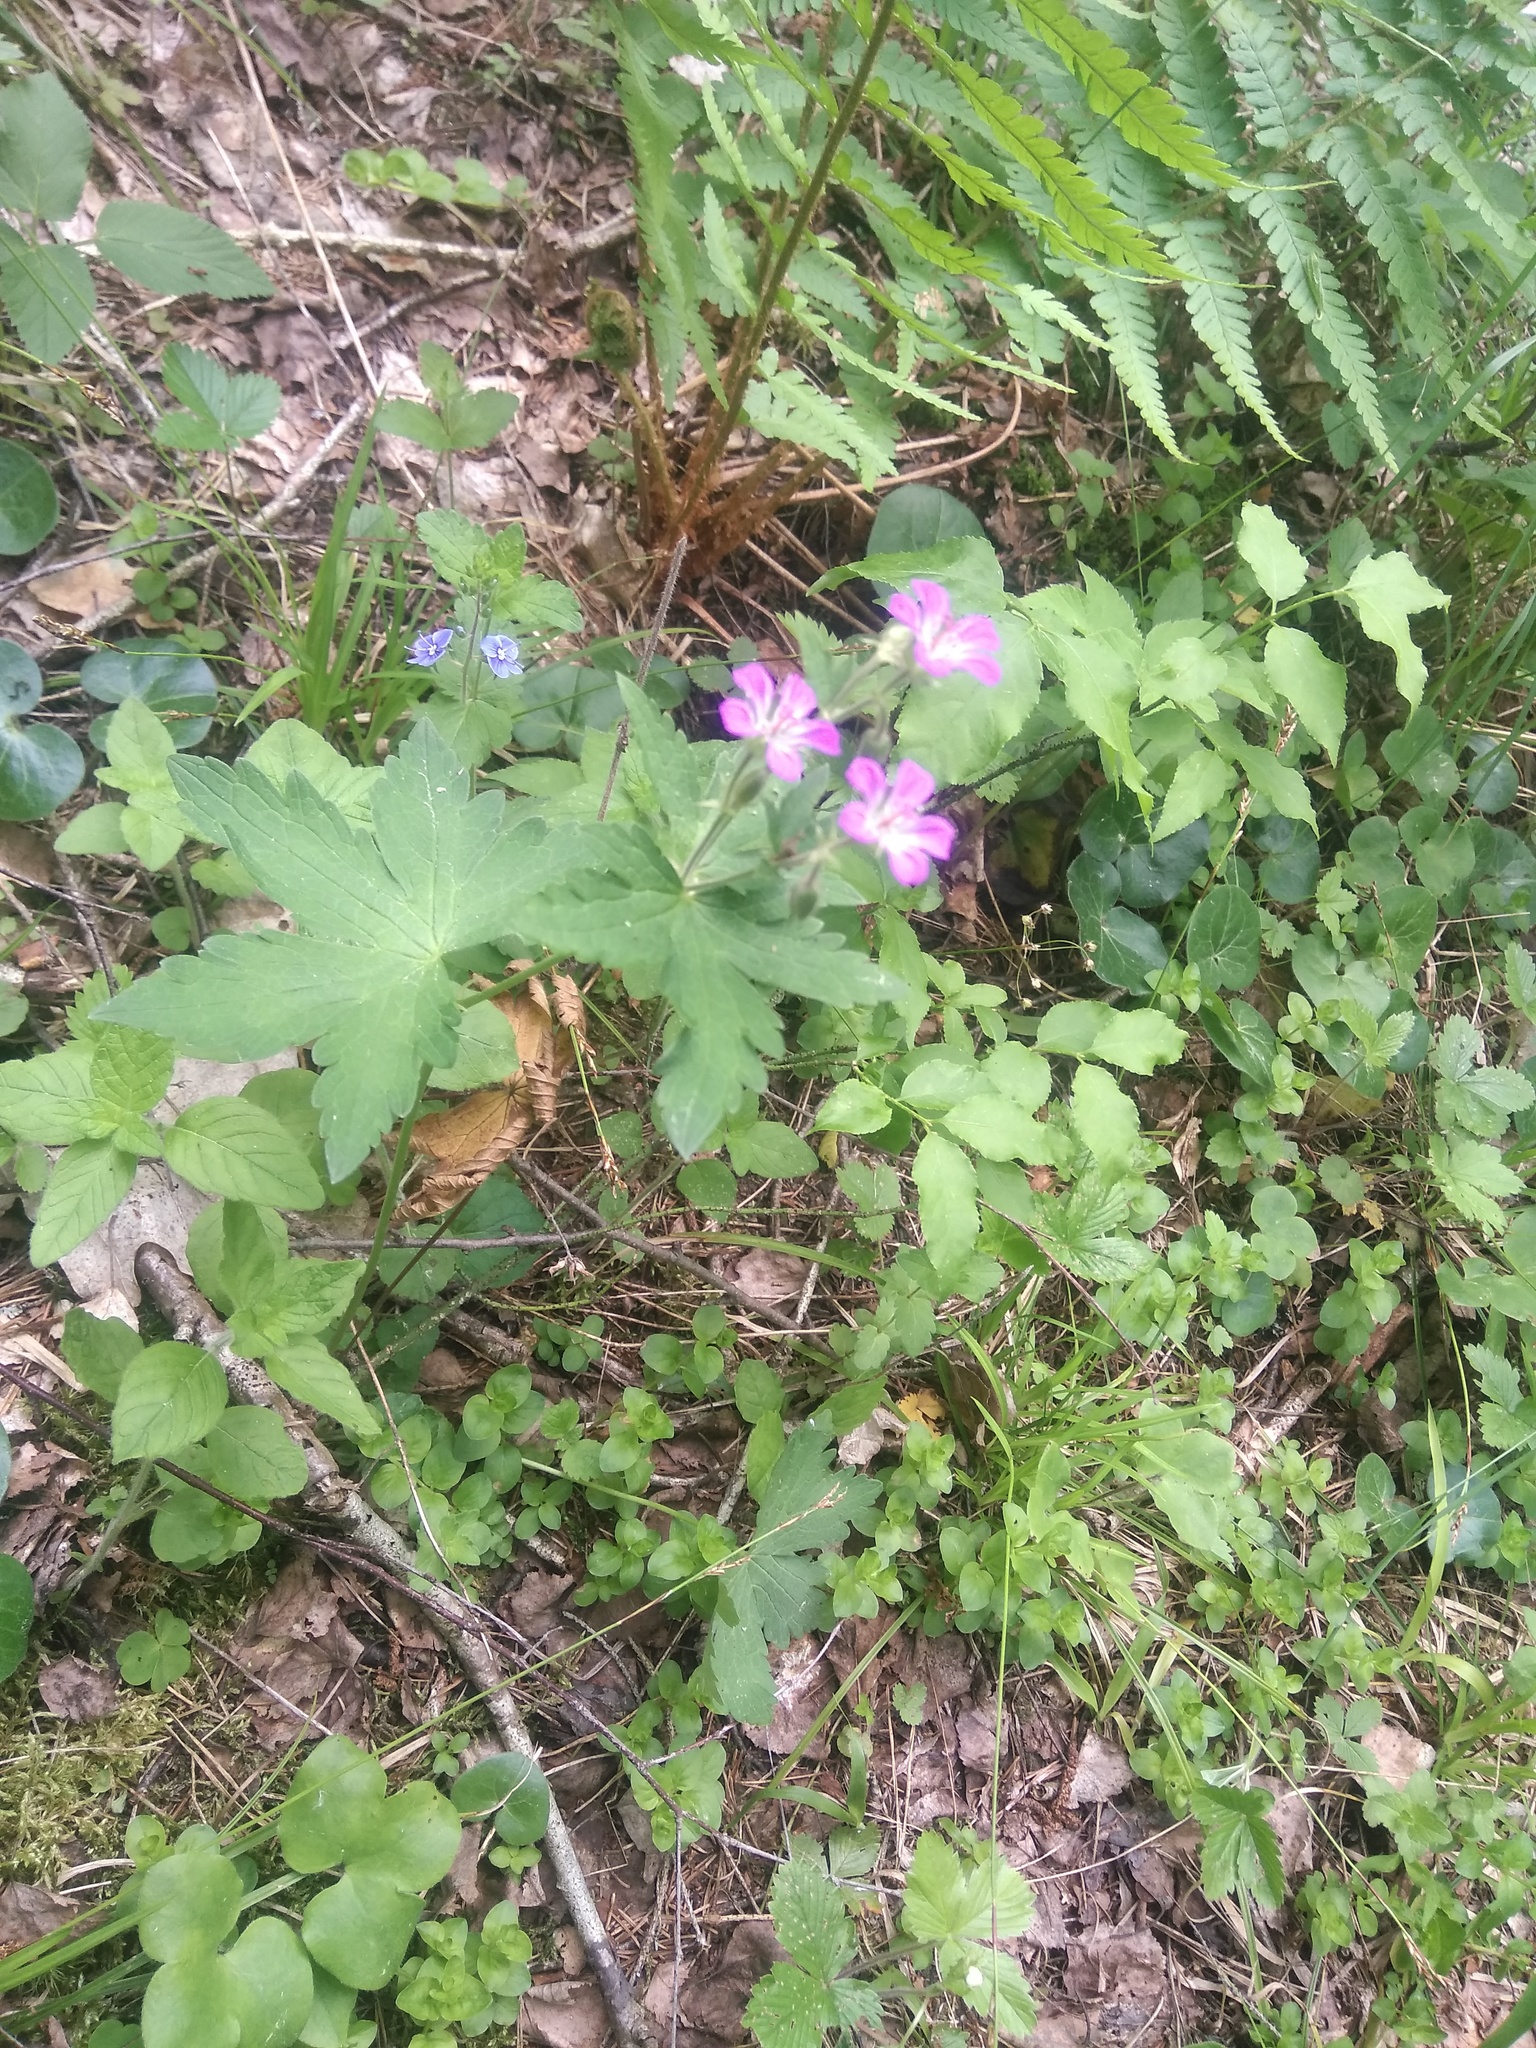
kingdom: Plantae
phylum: Tracheophyta
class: Magnoliopsida
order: Geraniales
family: Geraniaceae
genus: Geranium
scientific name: Geranium sylvaticum
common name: Wood crane's-bill
